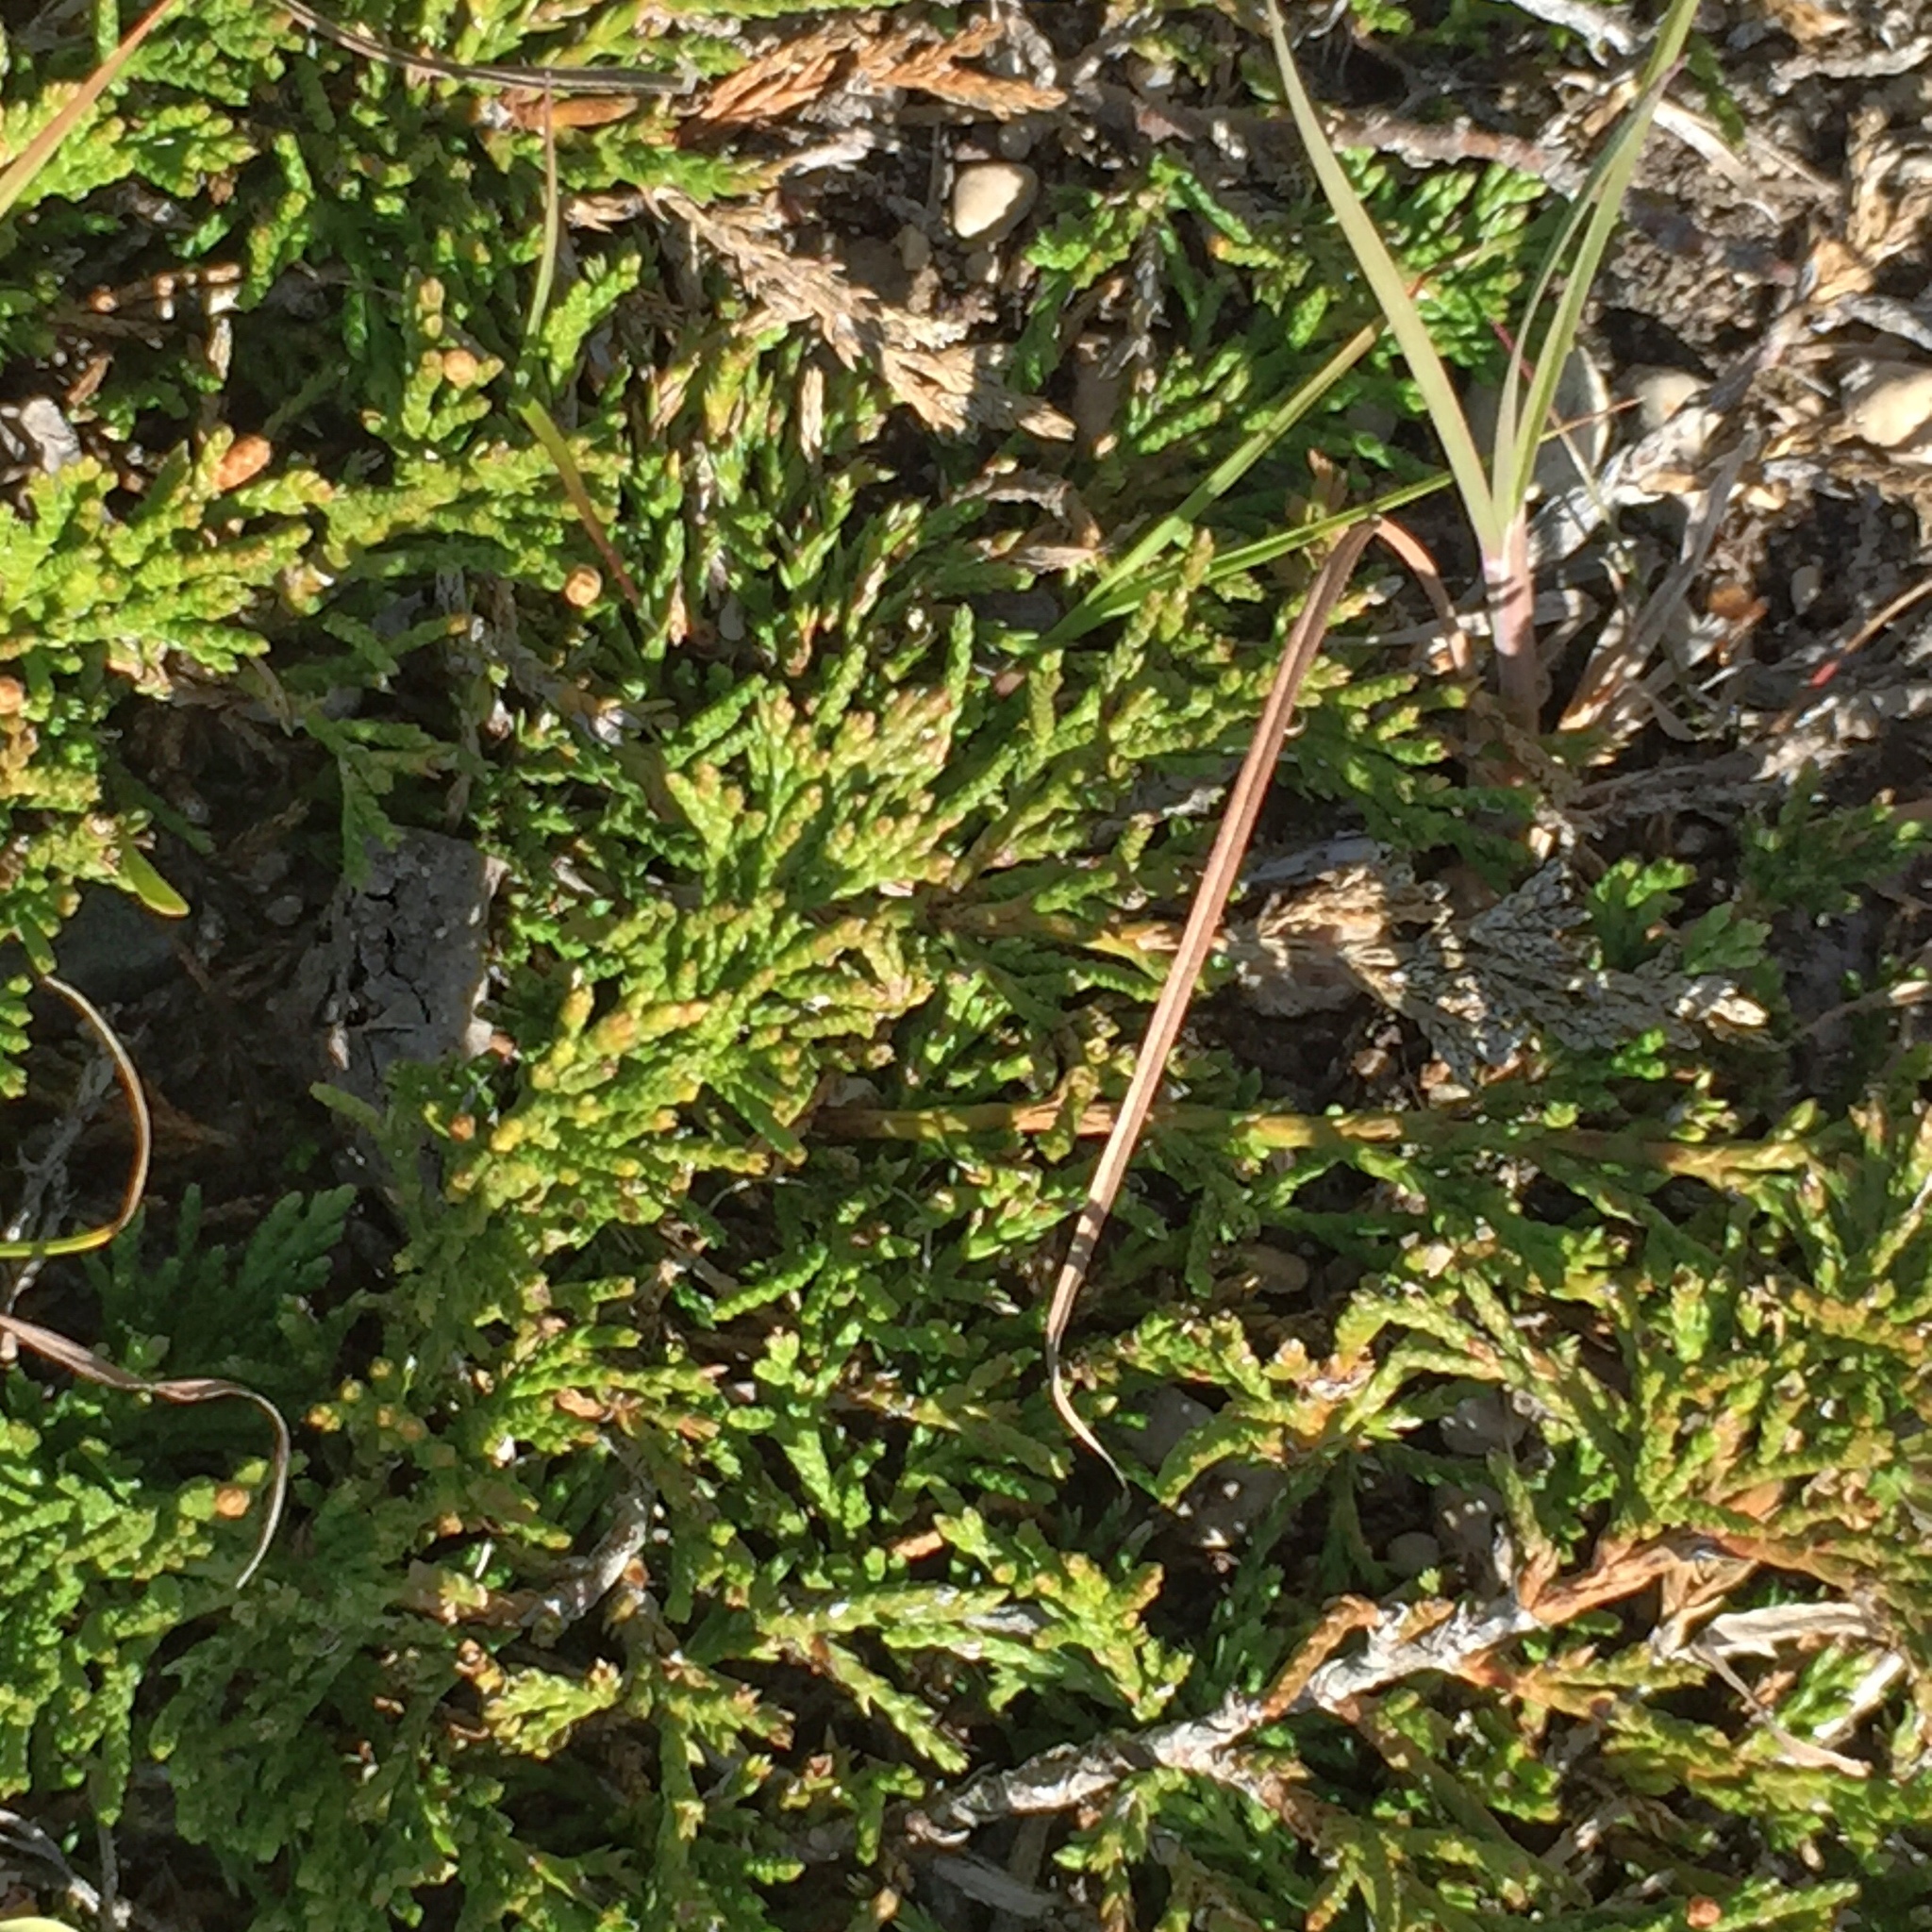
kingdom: Plantae
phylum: Tracheophyta
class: Pinopsida
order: Pinales
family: Cupressaceae
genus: Juniperus
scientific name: Juniperus horizontalis
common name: Creeping juniper
